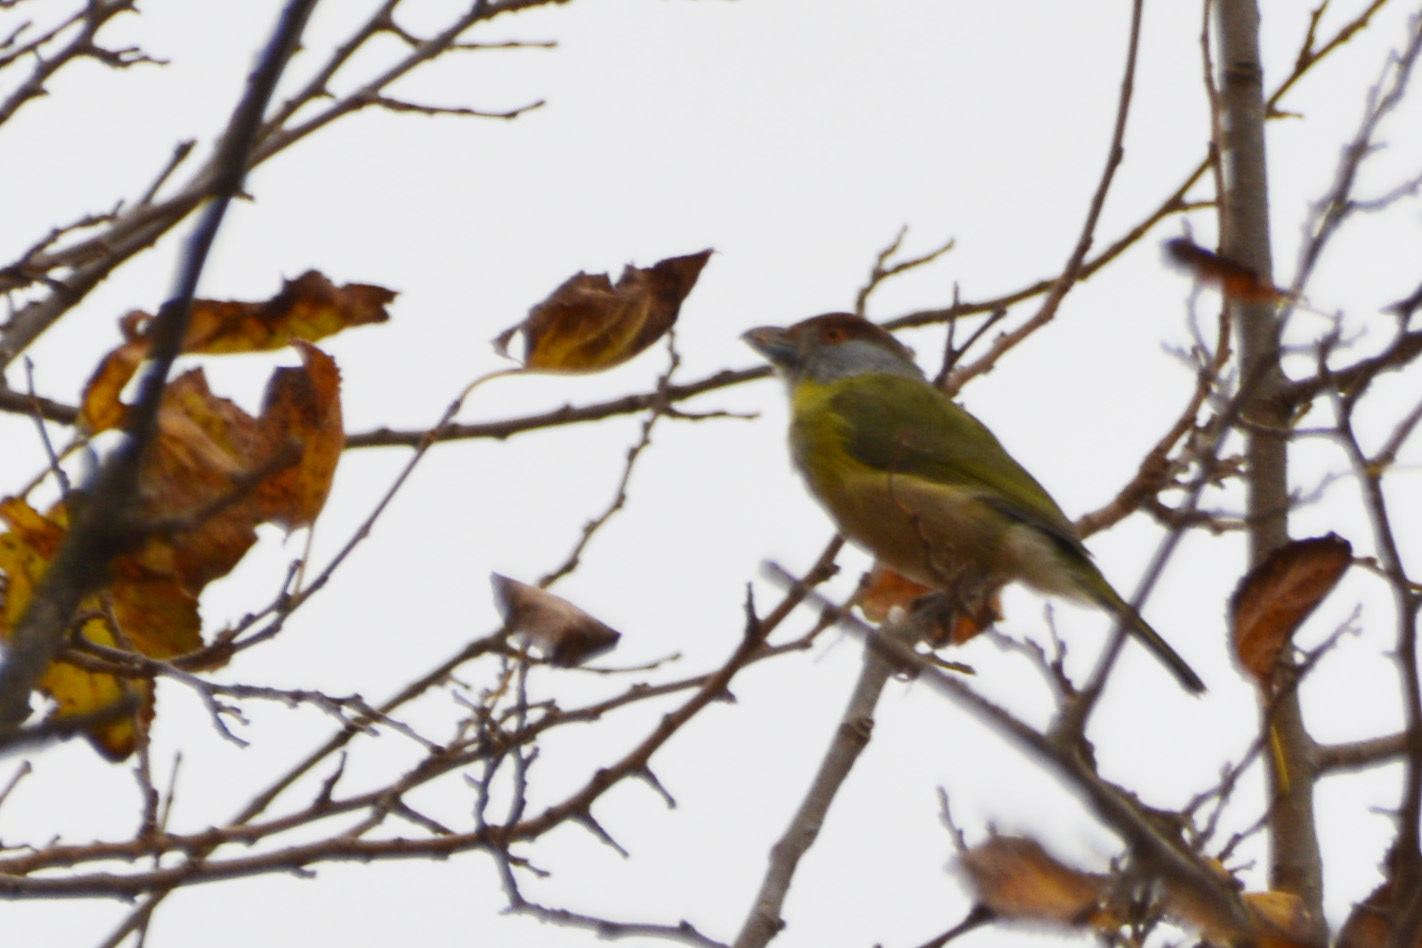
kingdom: Animalia
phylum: Chordata
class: Aves
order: Passeriformes
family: Vireonidae
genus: Cyclarhis
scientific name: Cyclarhis gujanensis
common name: Rufous-browed peppershrike
